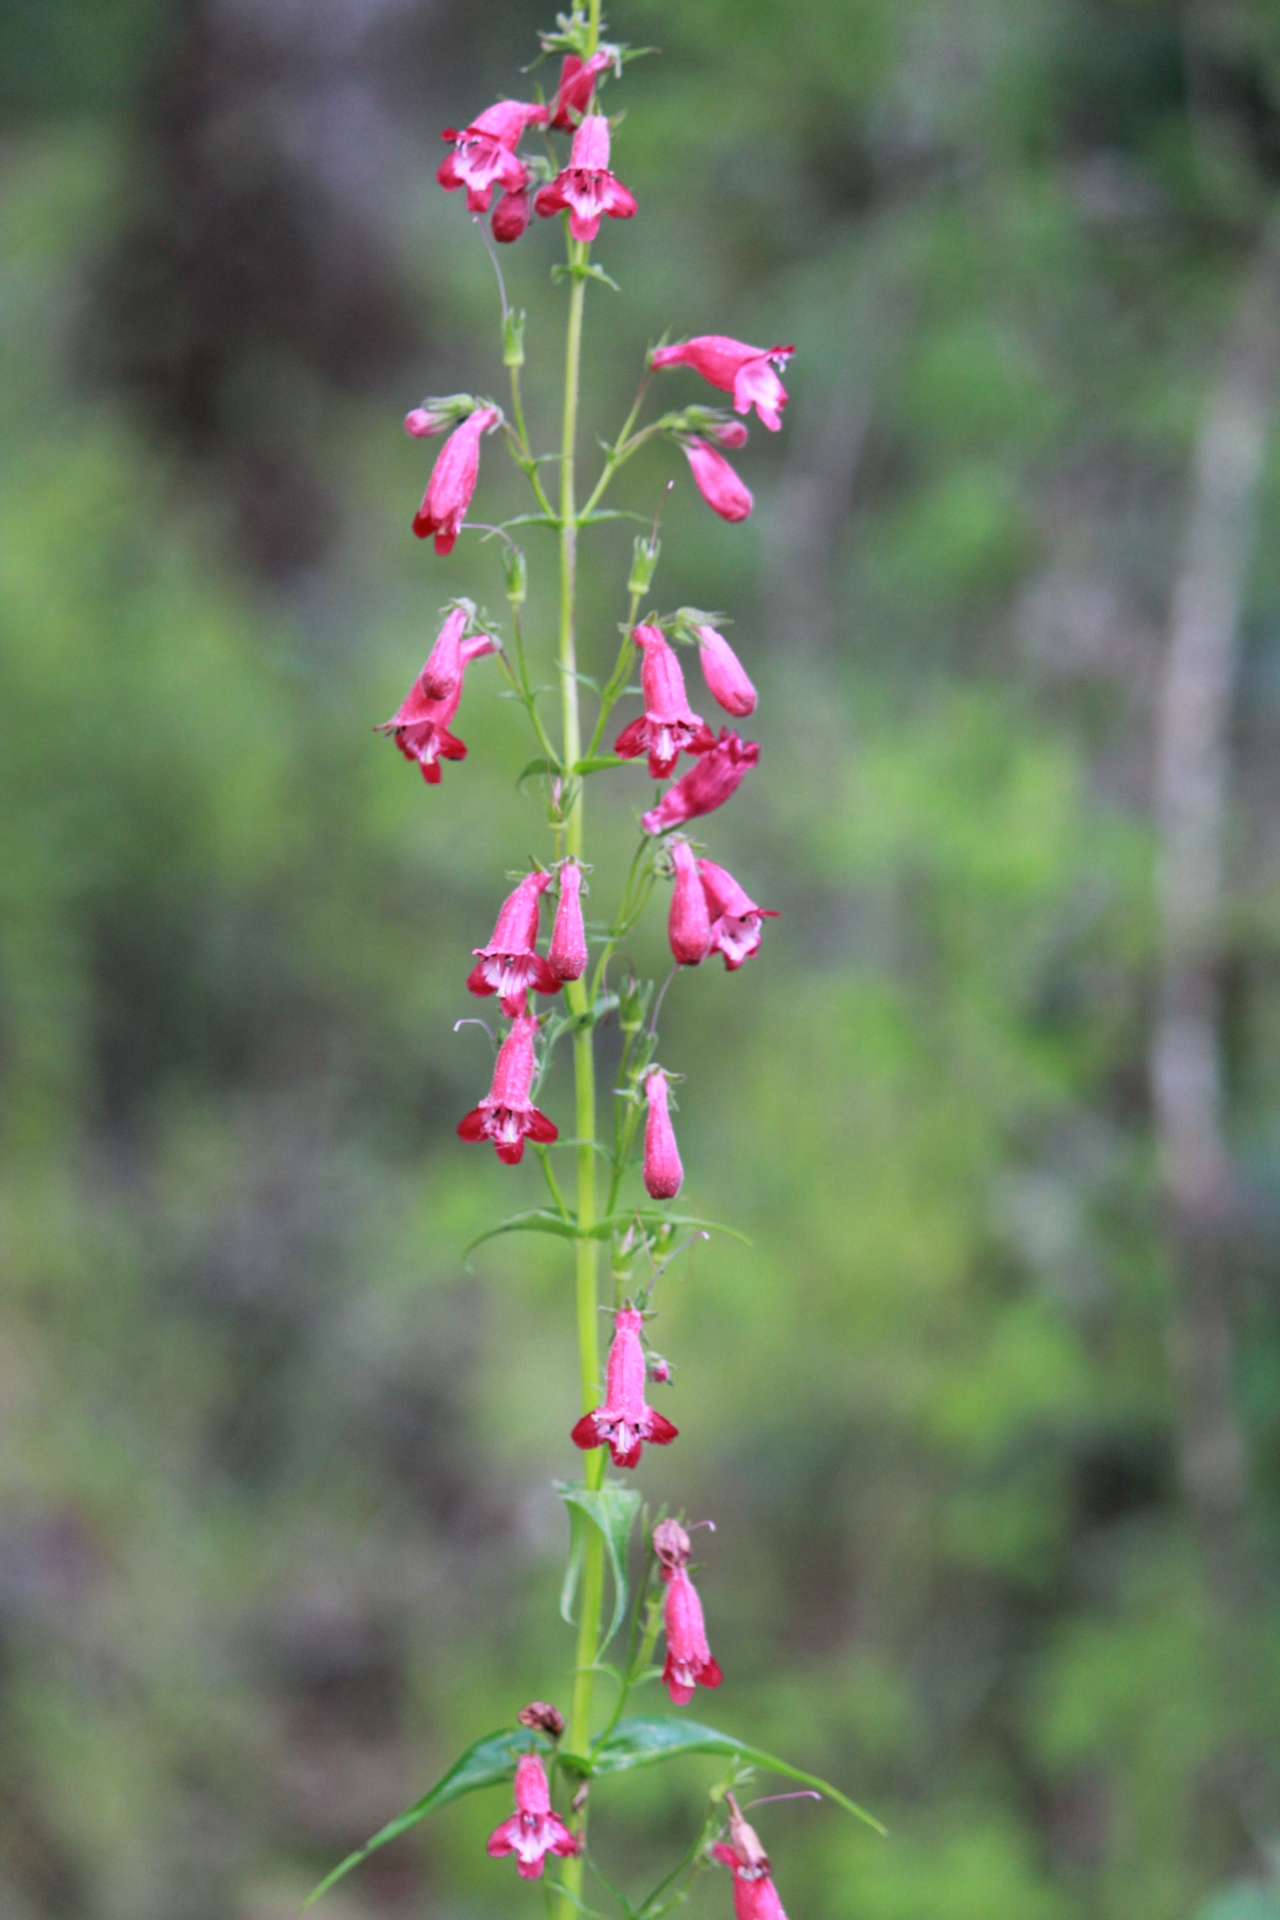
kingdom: Plantae
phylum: Tracheophyta
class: Magnoliopsida
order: Lamiales
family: Plantaginaceae
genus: Penstemon
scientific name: Penstemon roseus
